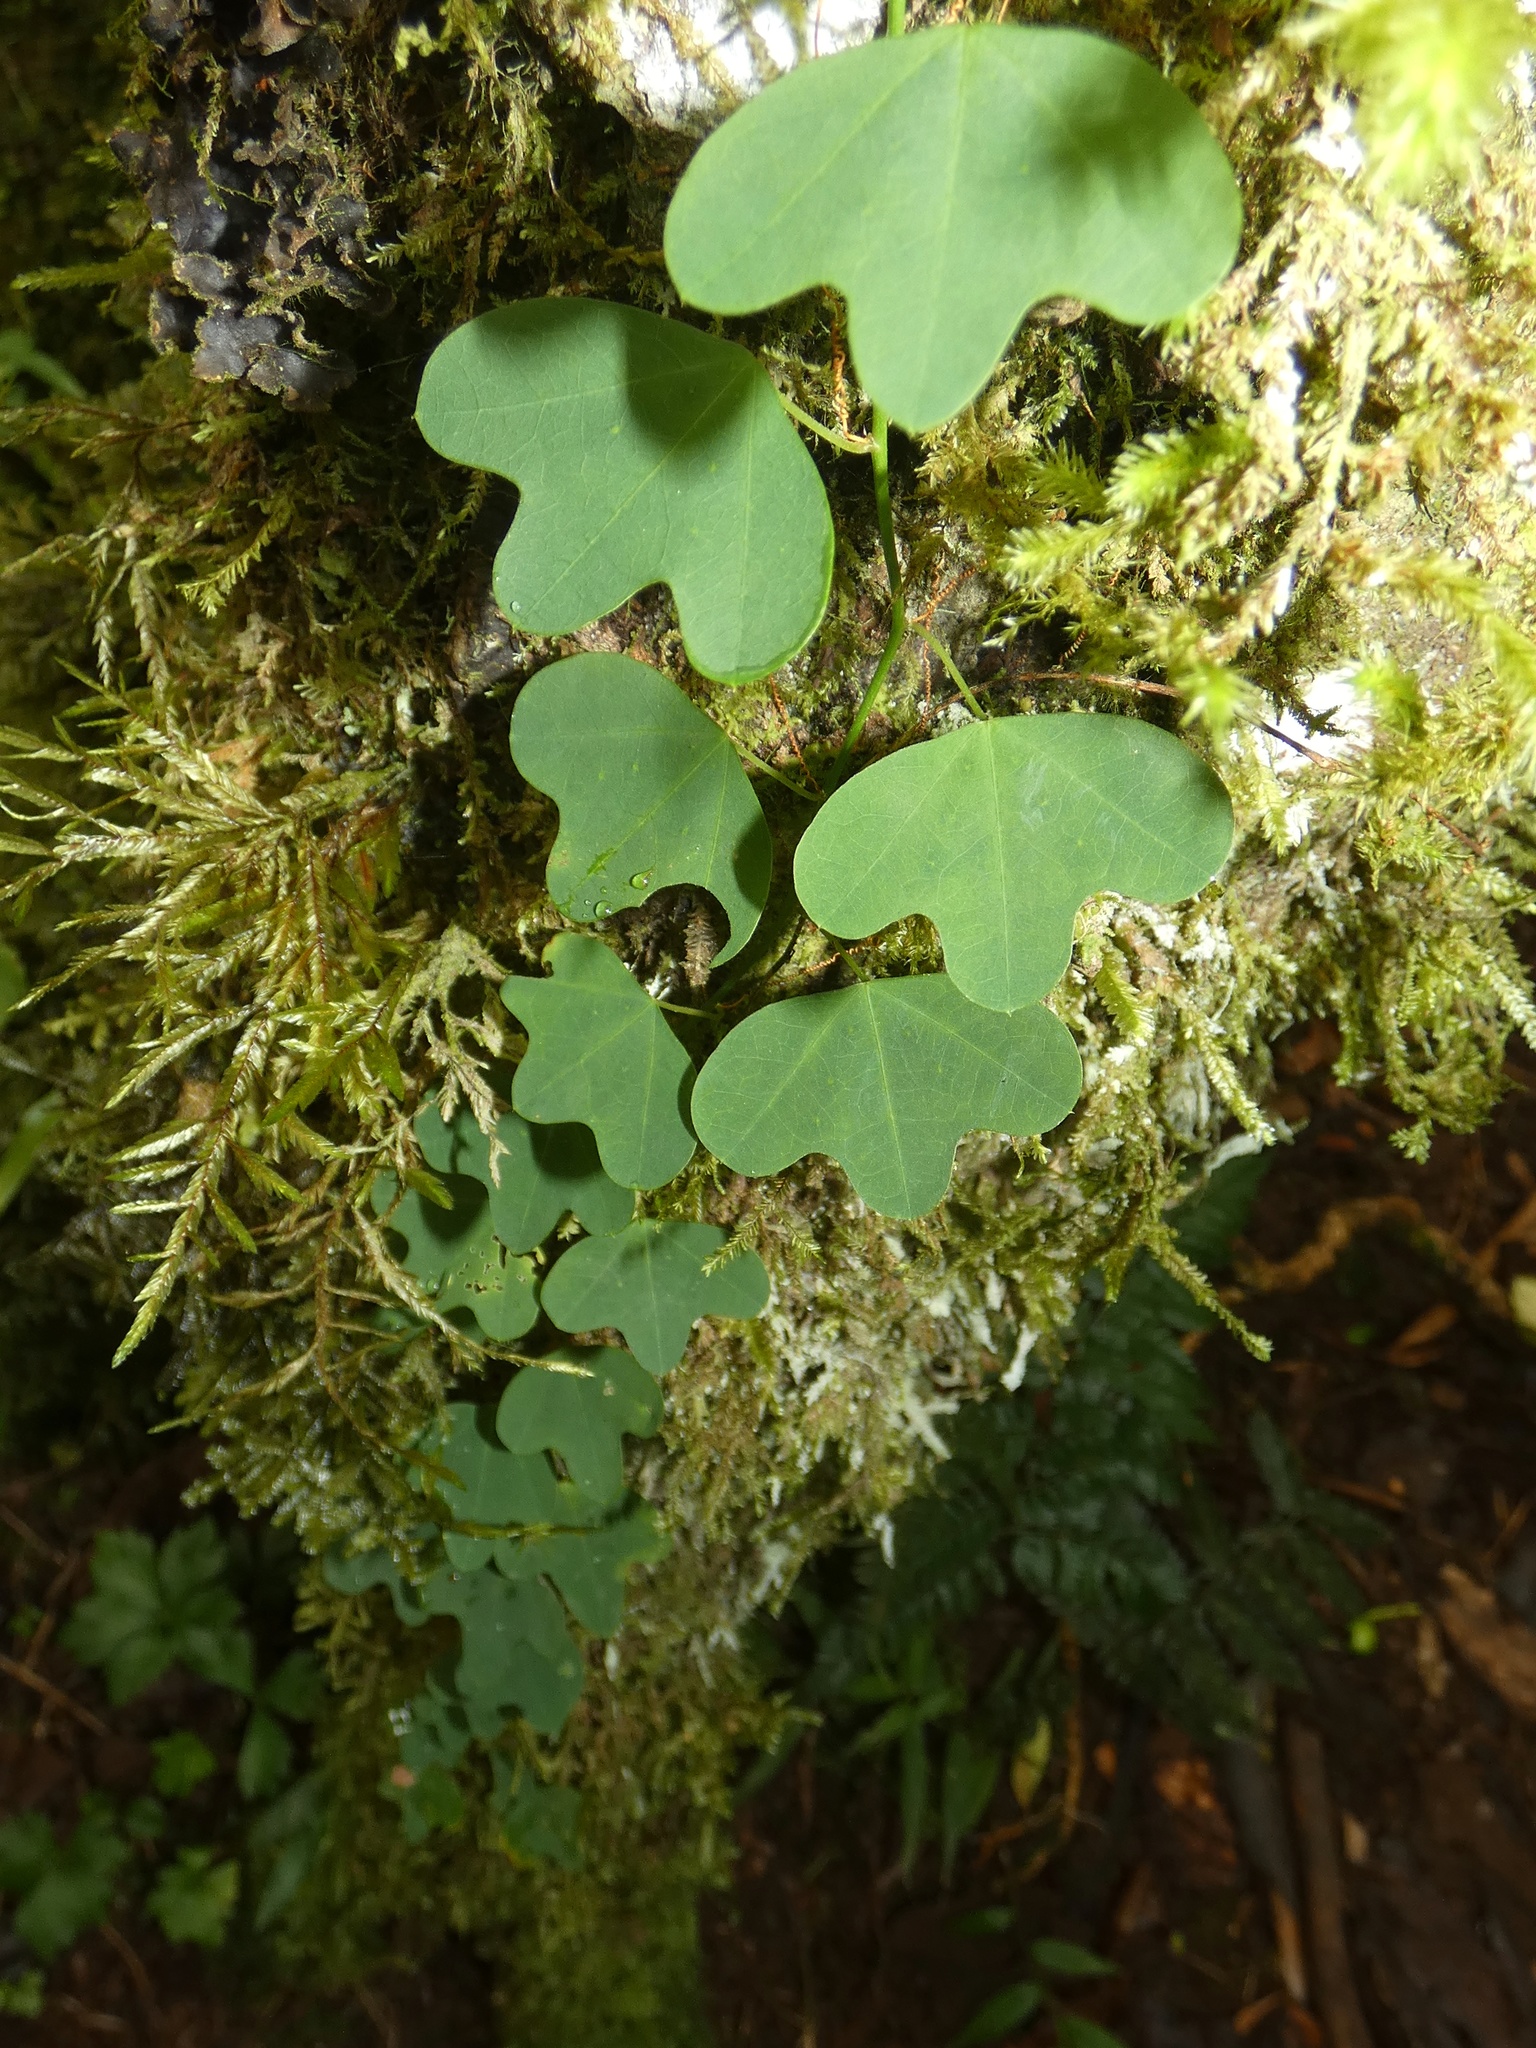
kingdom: Plantae
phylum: Tracheophyta
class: Magnoliopsida
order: Malpighiales
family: Passifloraceae
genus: Passiflora
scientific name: Passiflora lancearia
